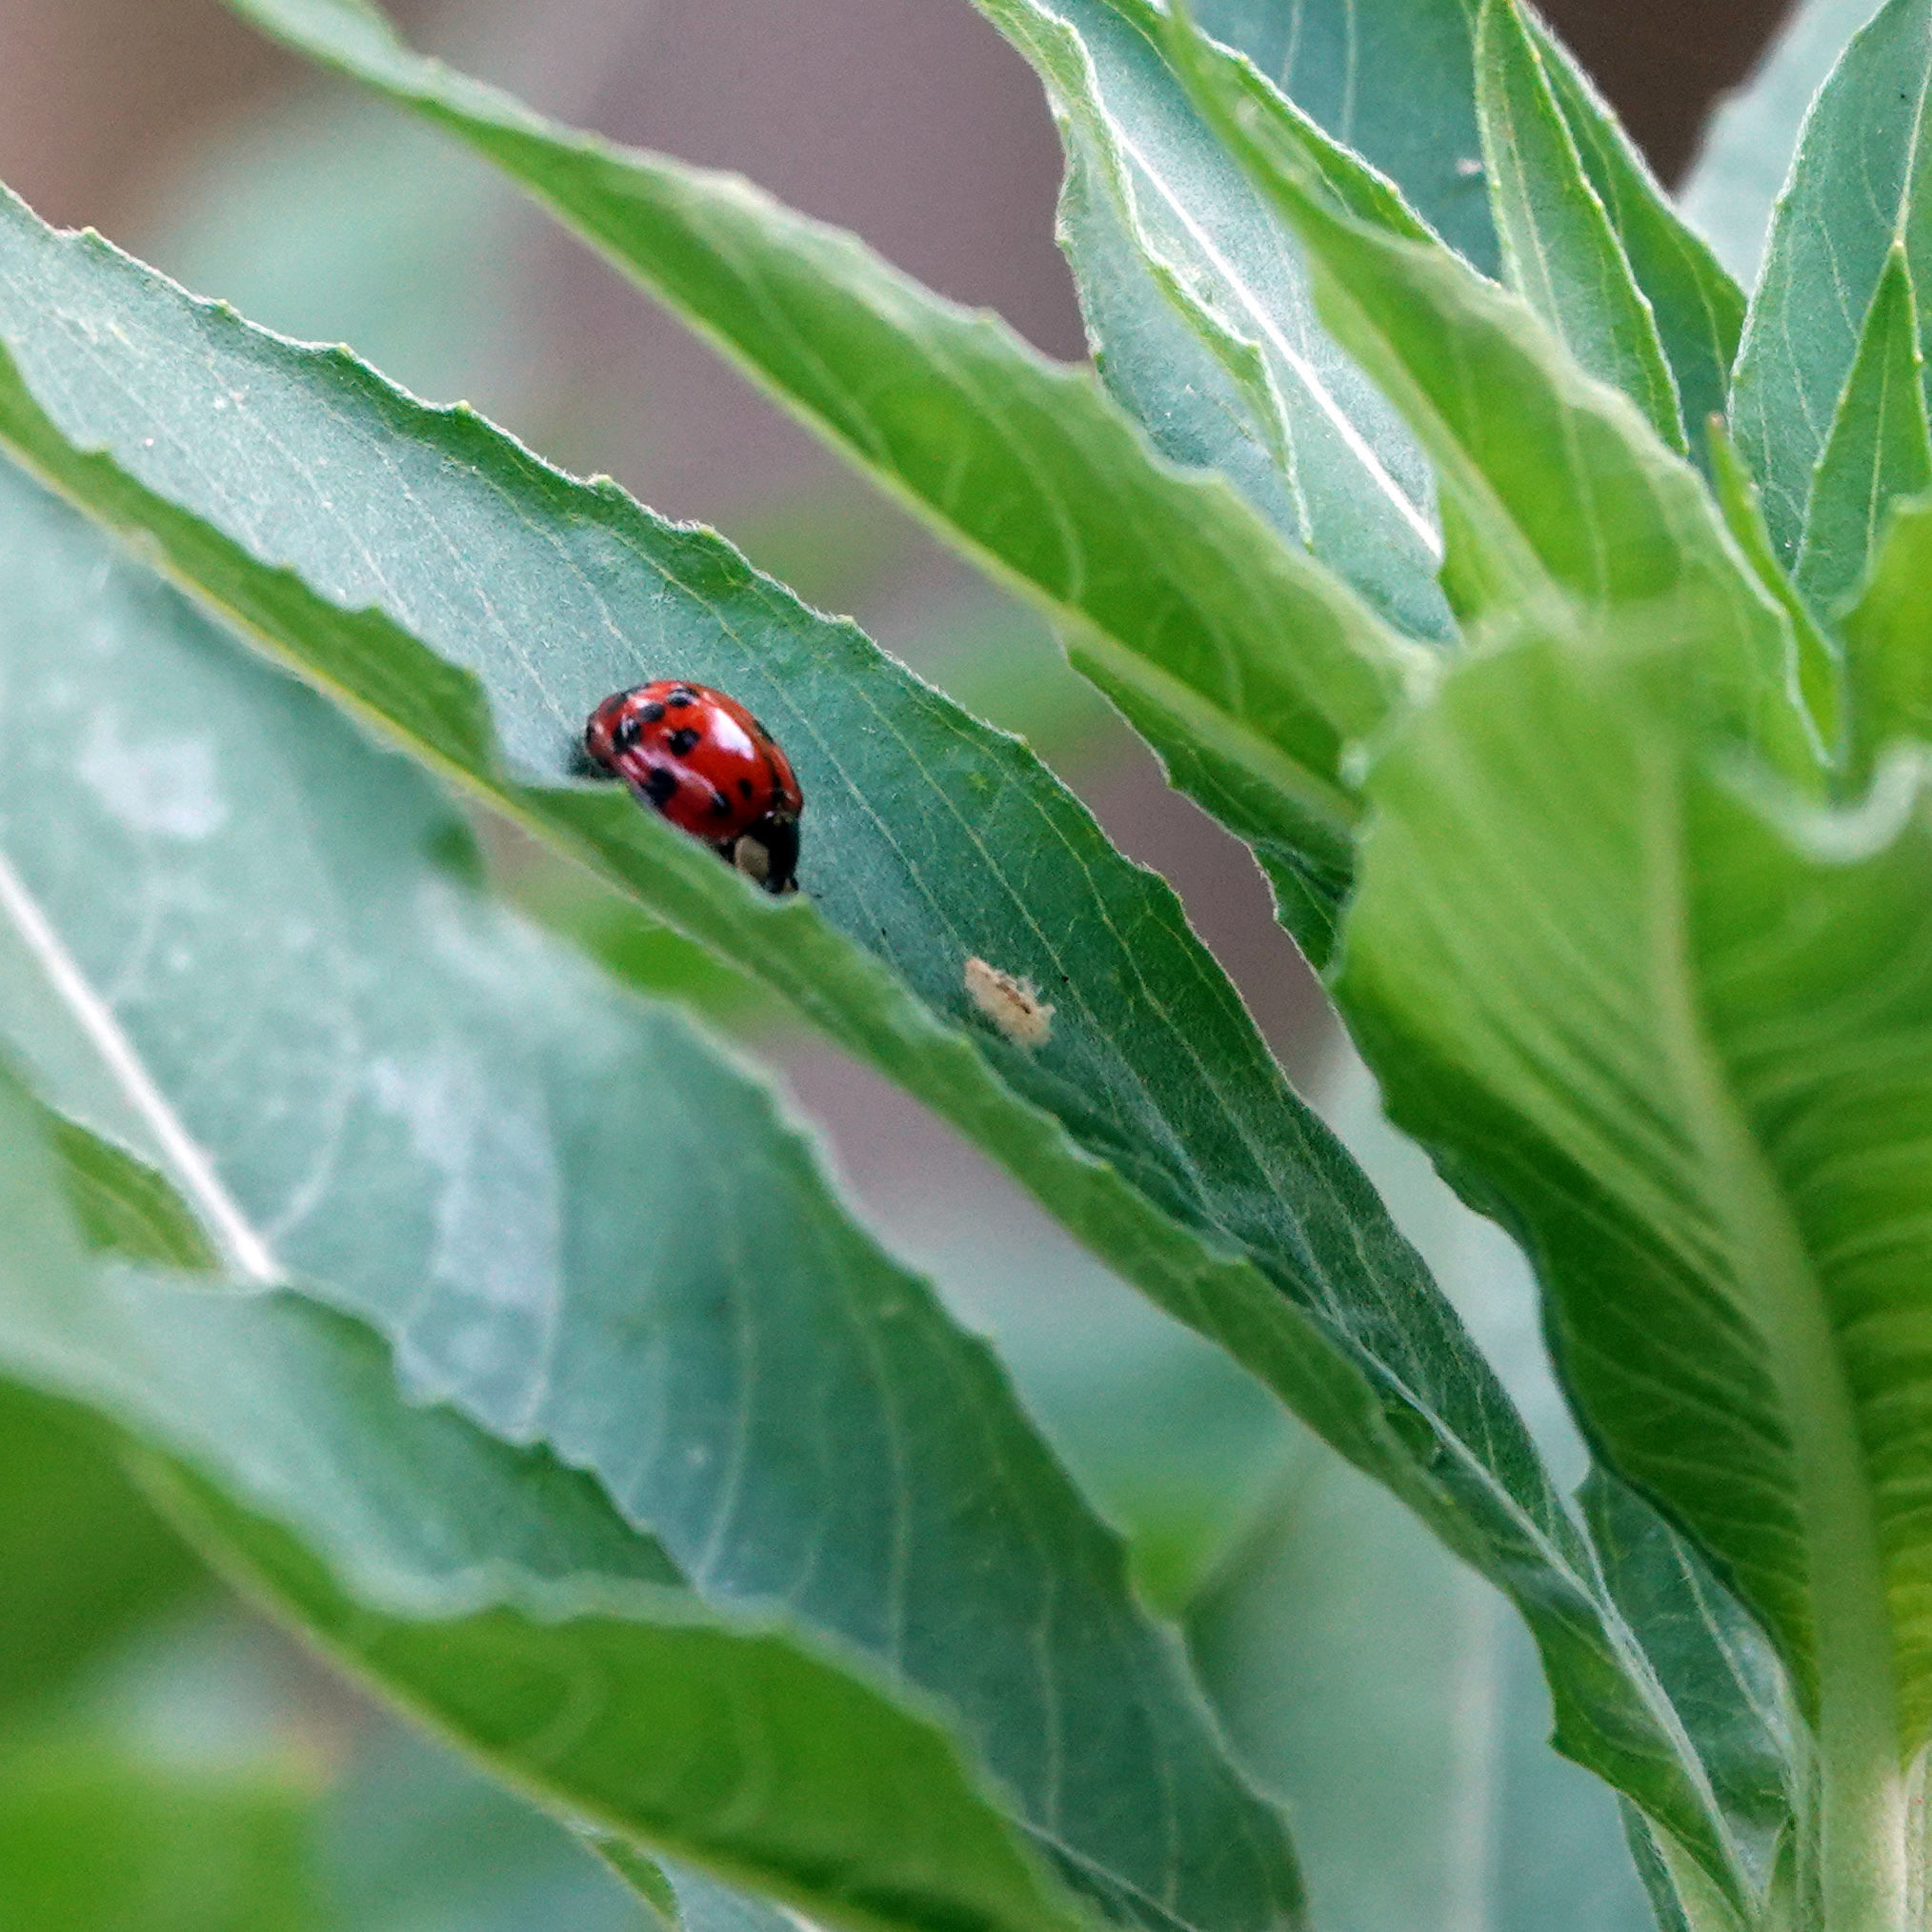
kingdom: Animalia
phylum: Arthropoda
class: Insecta
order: Coleoptera
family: Coccinellidae
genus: Harmonia
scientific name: Harmonia axyridis
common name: Harlequin ladybird
